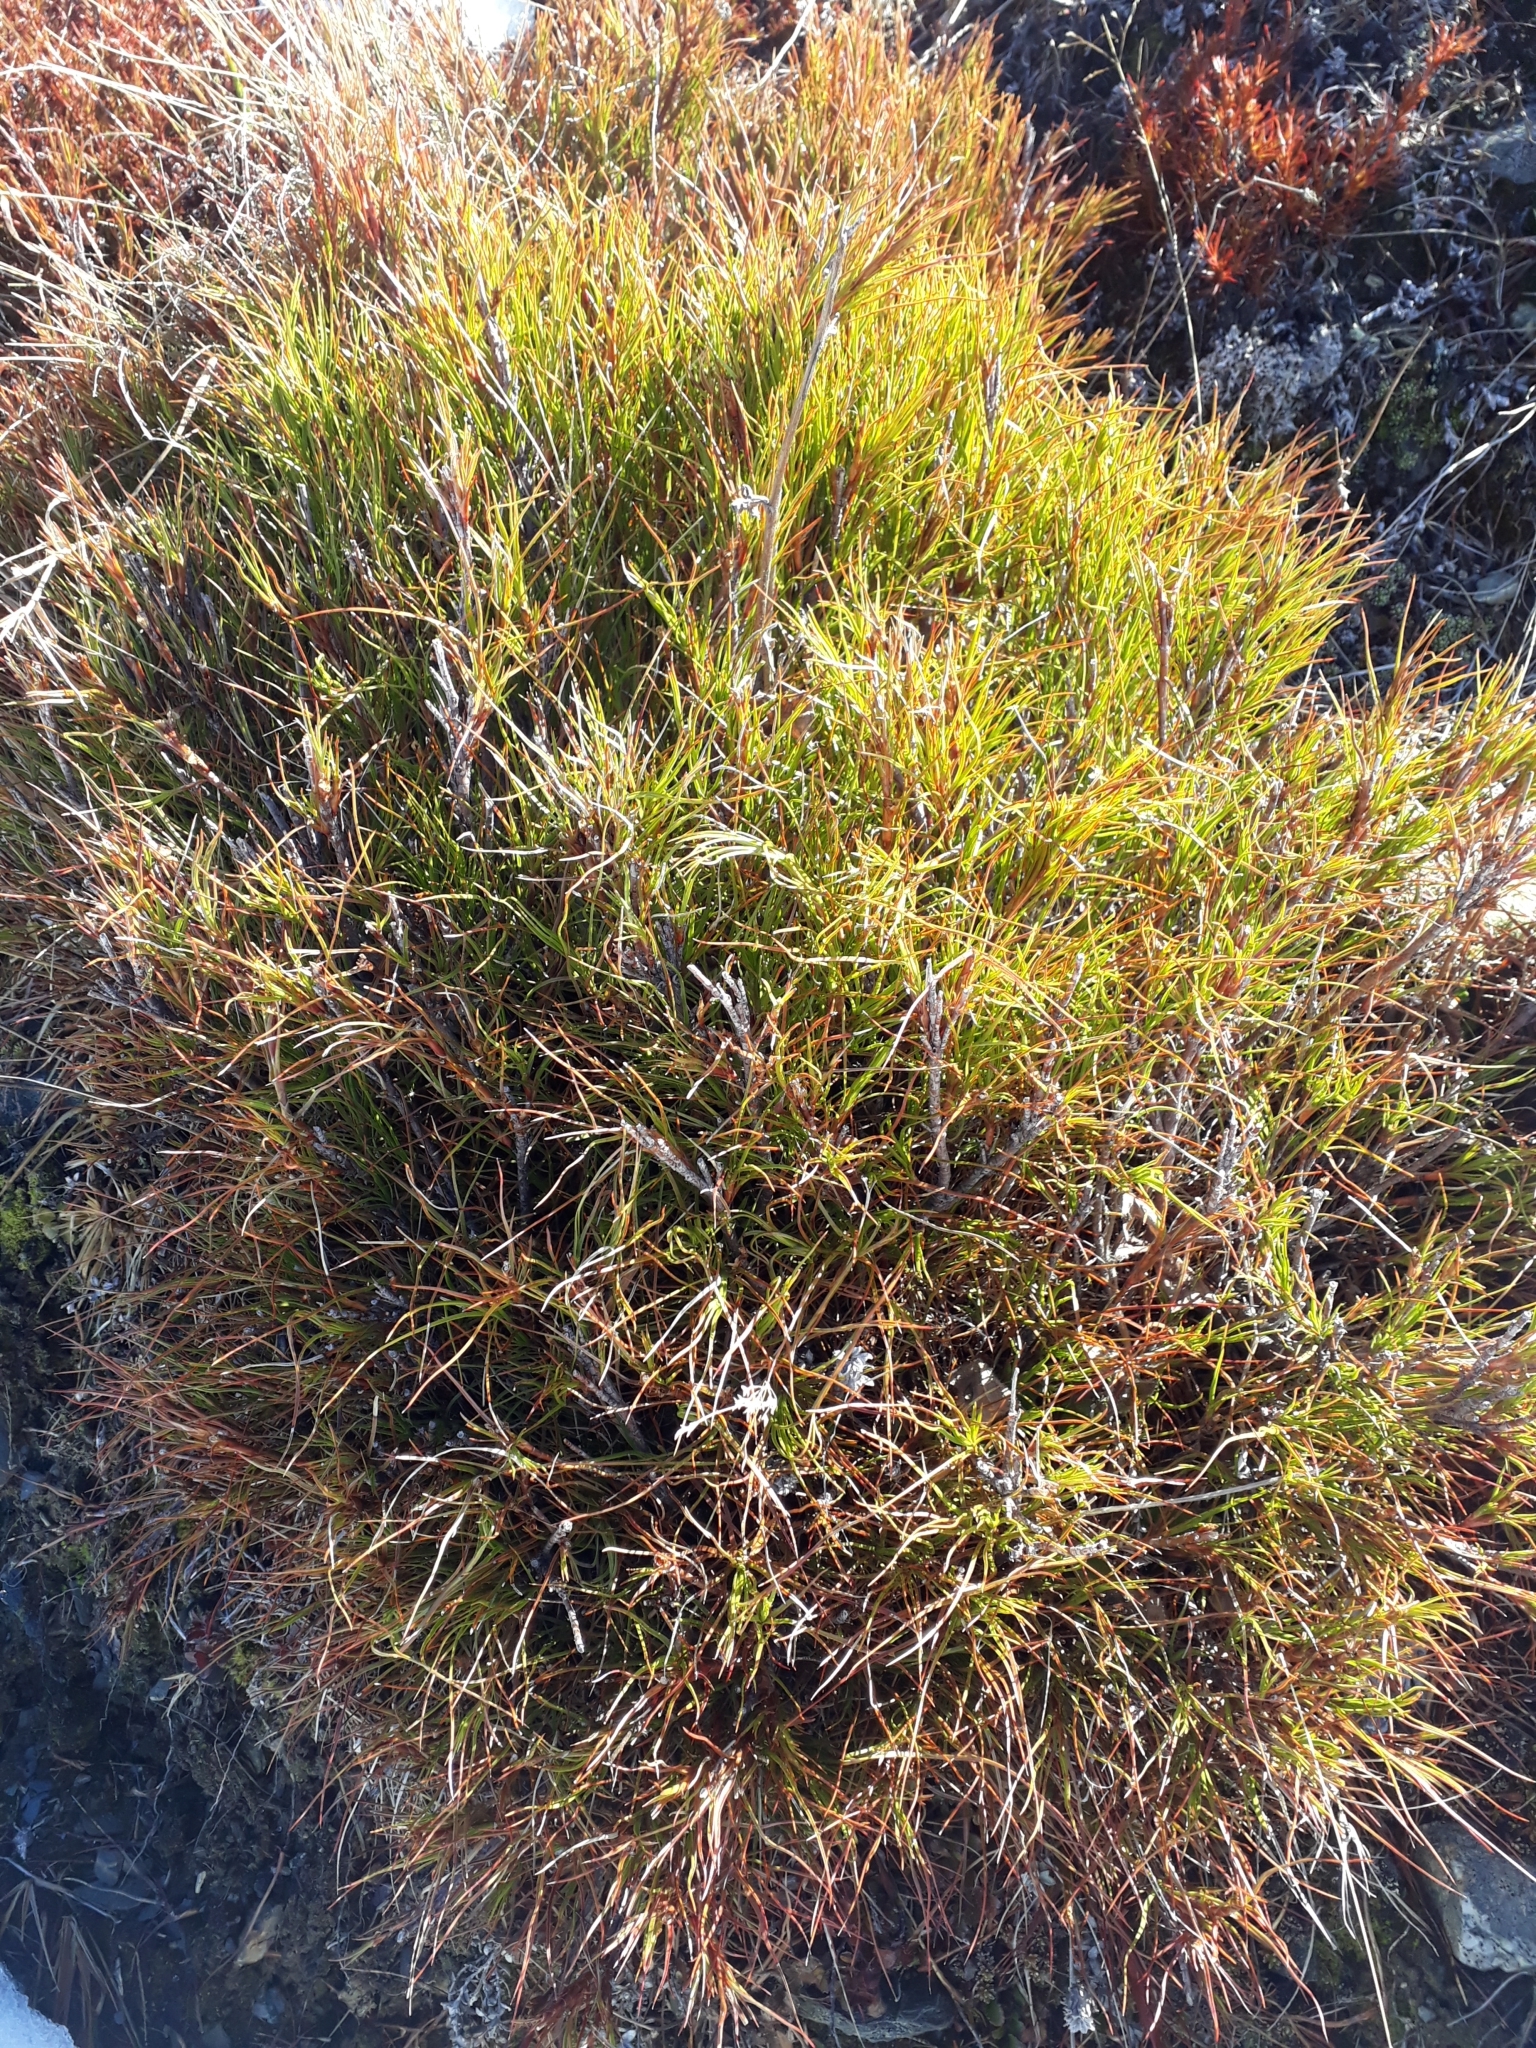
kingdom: Plantae
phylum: Tracheophyta
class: Magnoliopsida
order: Ericales
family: Ericaceae
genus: Dracophyllum
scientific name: Dracophyllum rosmarinifolium
